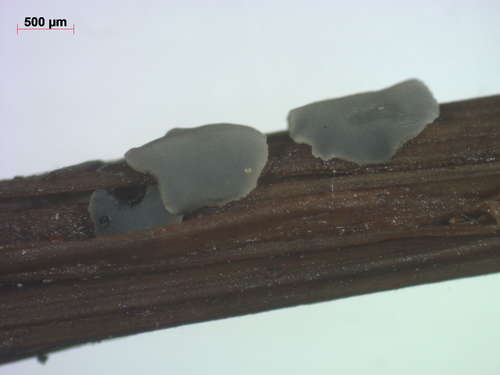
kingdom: Fungi
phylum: Ascomycota
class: Leotiomycetes
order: Helotiales
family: Mollisiaceae
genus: Mollisia
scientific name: Mollisia
